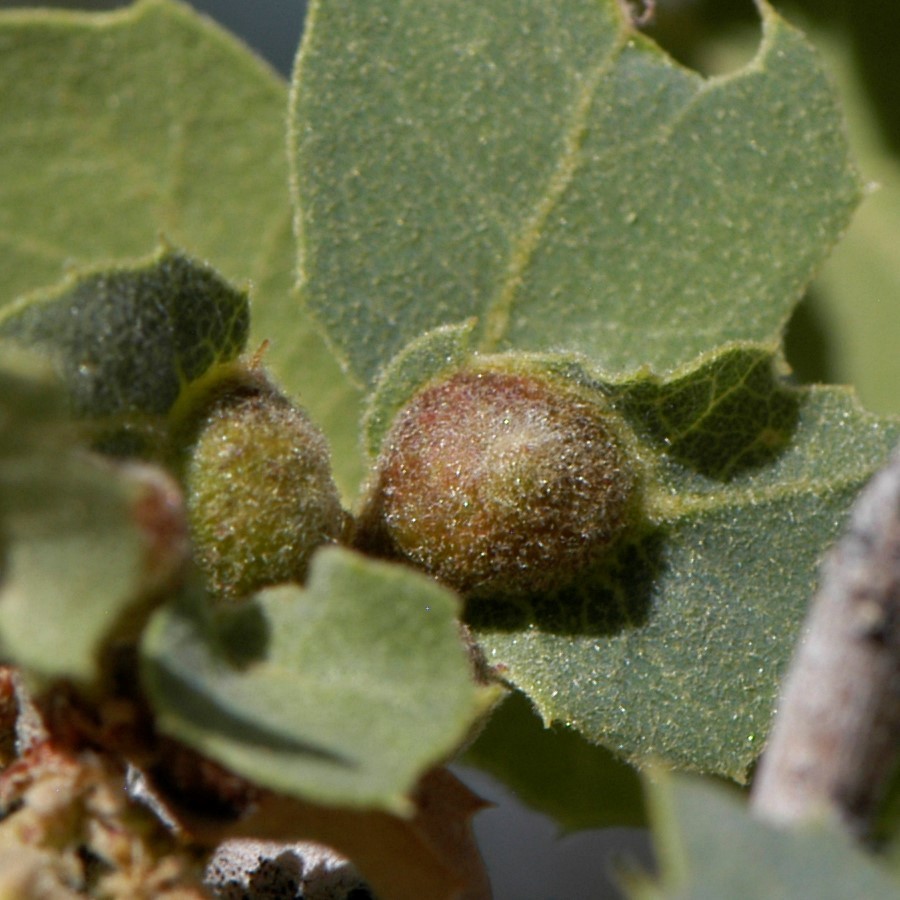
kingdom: Animalia
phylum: Arthropoda
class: Insecta
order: Hymenoptera
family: Cynipidae
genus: Andricus
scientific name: Andricus
